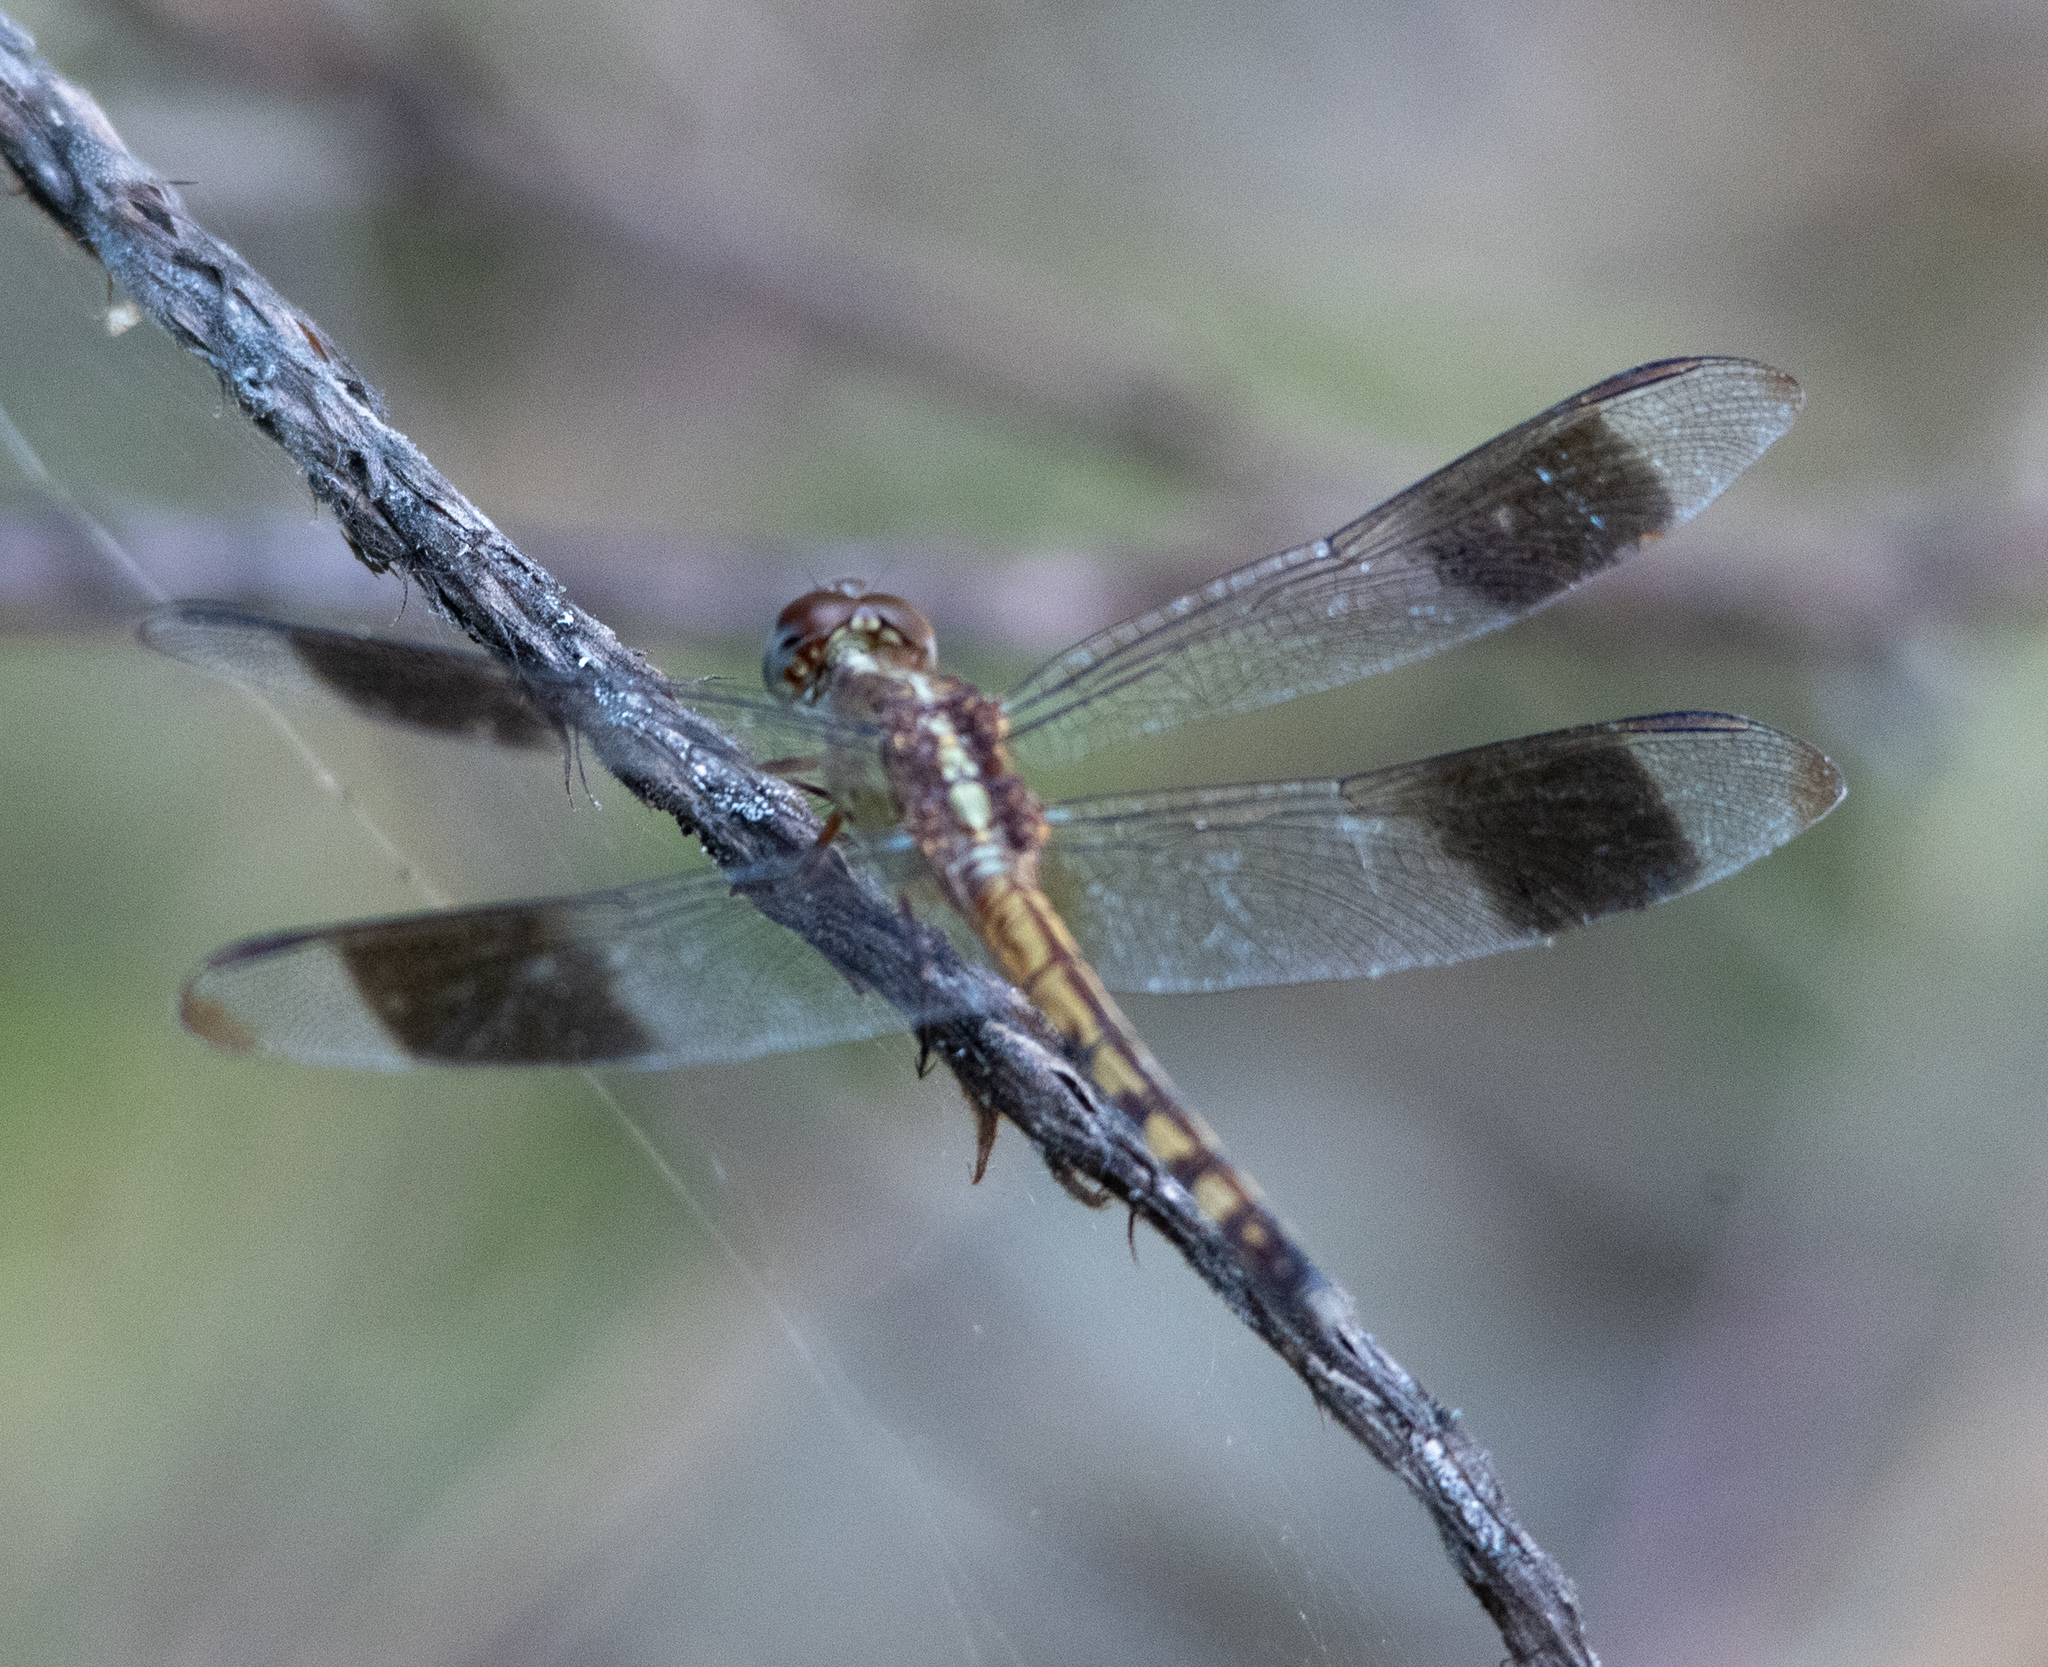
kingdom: Animalia
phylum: Arthropoda
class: Insecta
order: Odonata
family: Libellulidae
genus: Erythrodiplax
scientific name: Erythrodiplax umbrata
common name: Band-winged dragonlet
